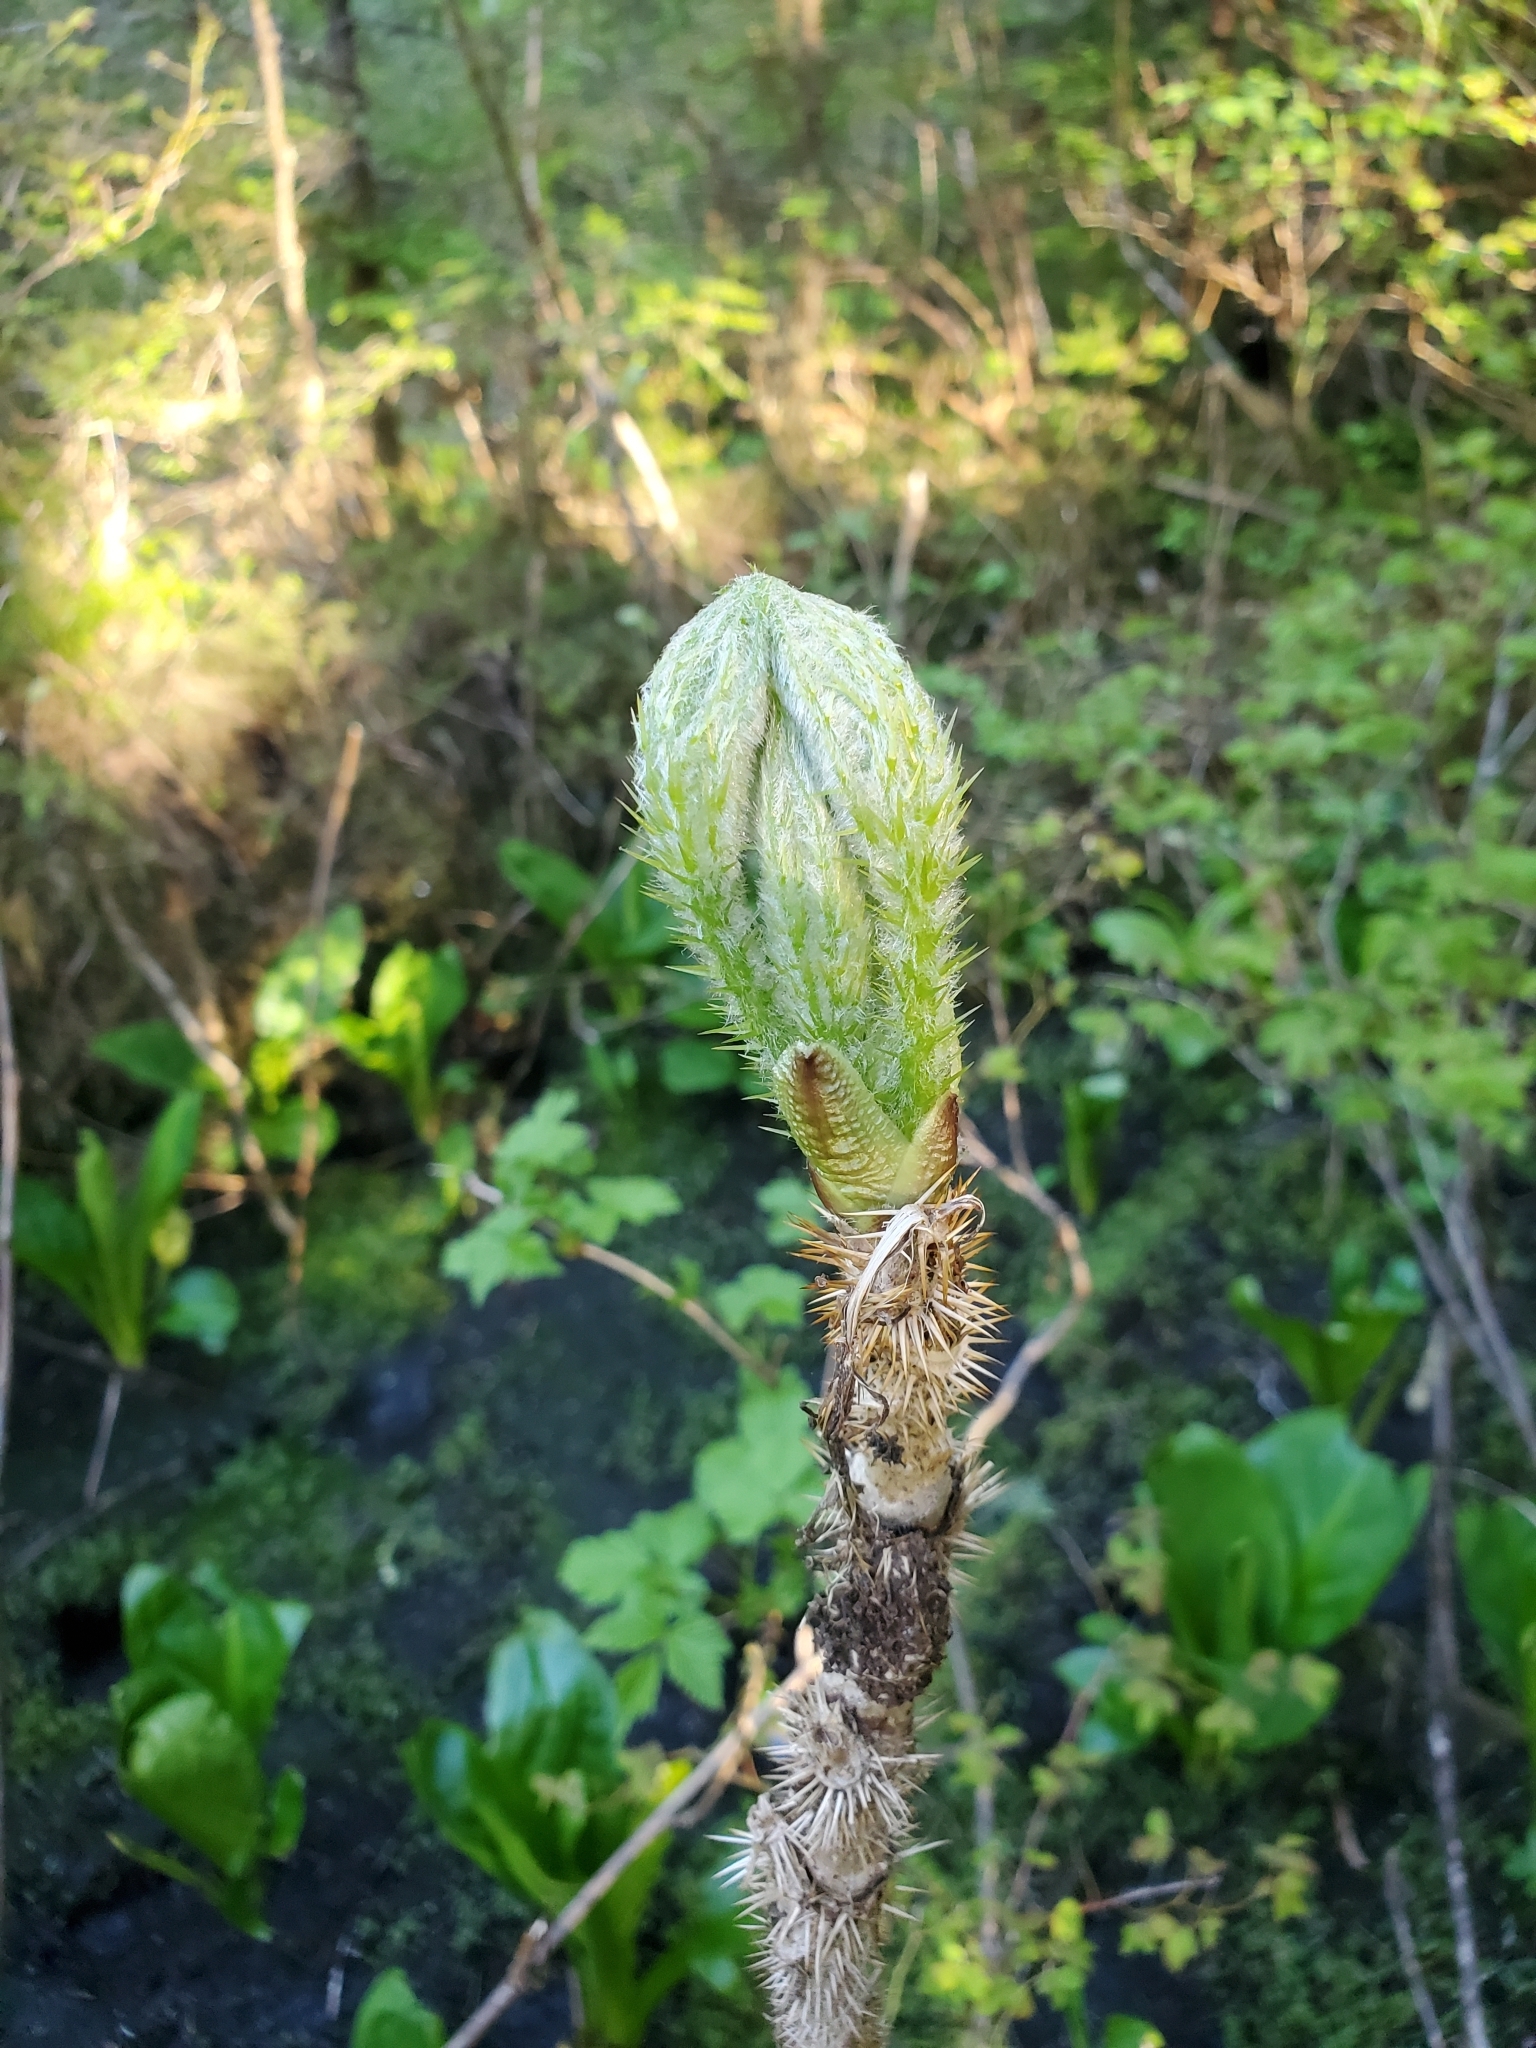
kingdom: Plantae
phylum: Tracheophyta
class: Magnoliopsida
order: Apiales
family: Araliaceae
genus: Oplopanax
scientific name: Oplopanax horridus
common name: Devil's walking-stick
